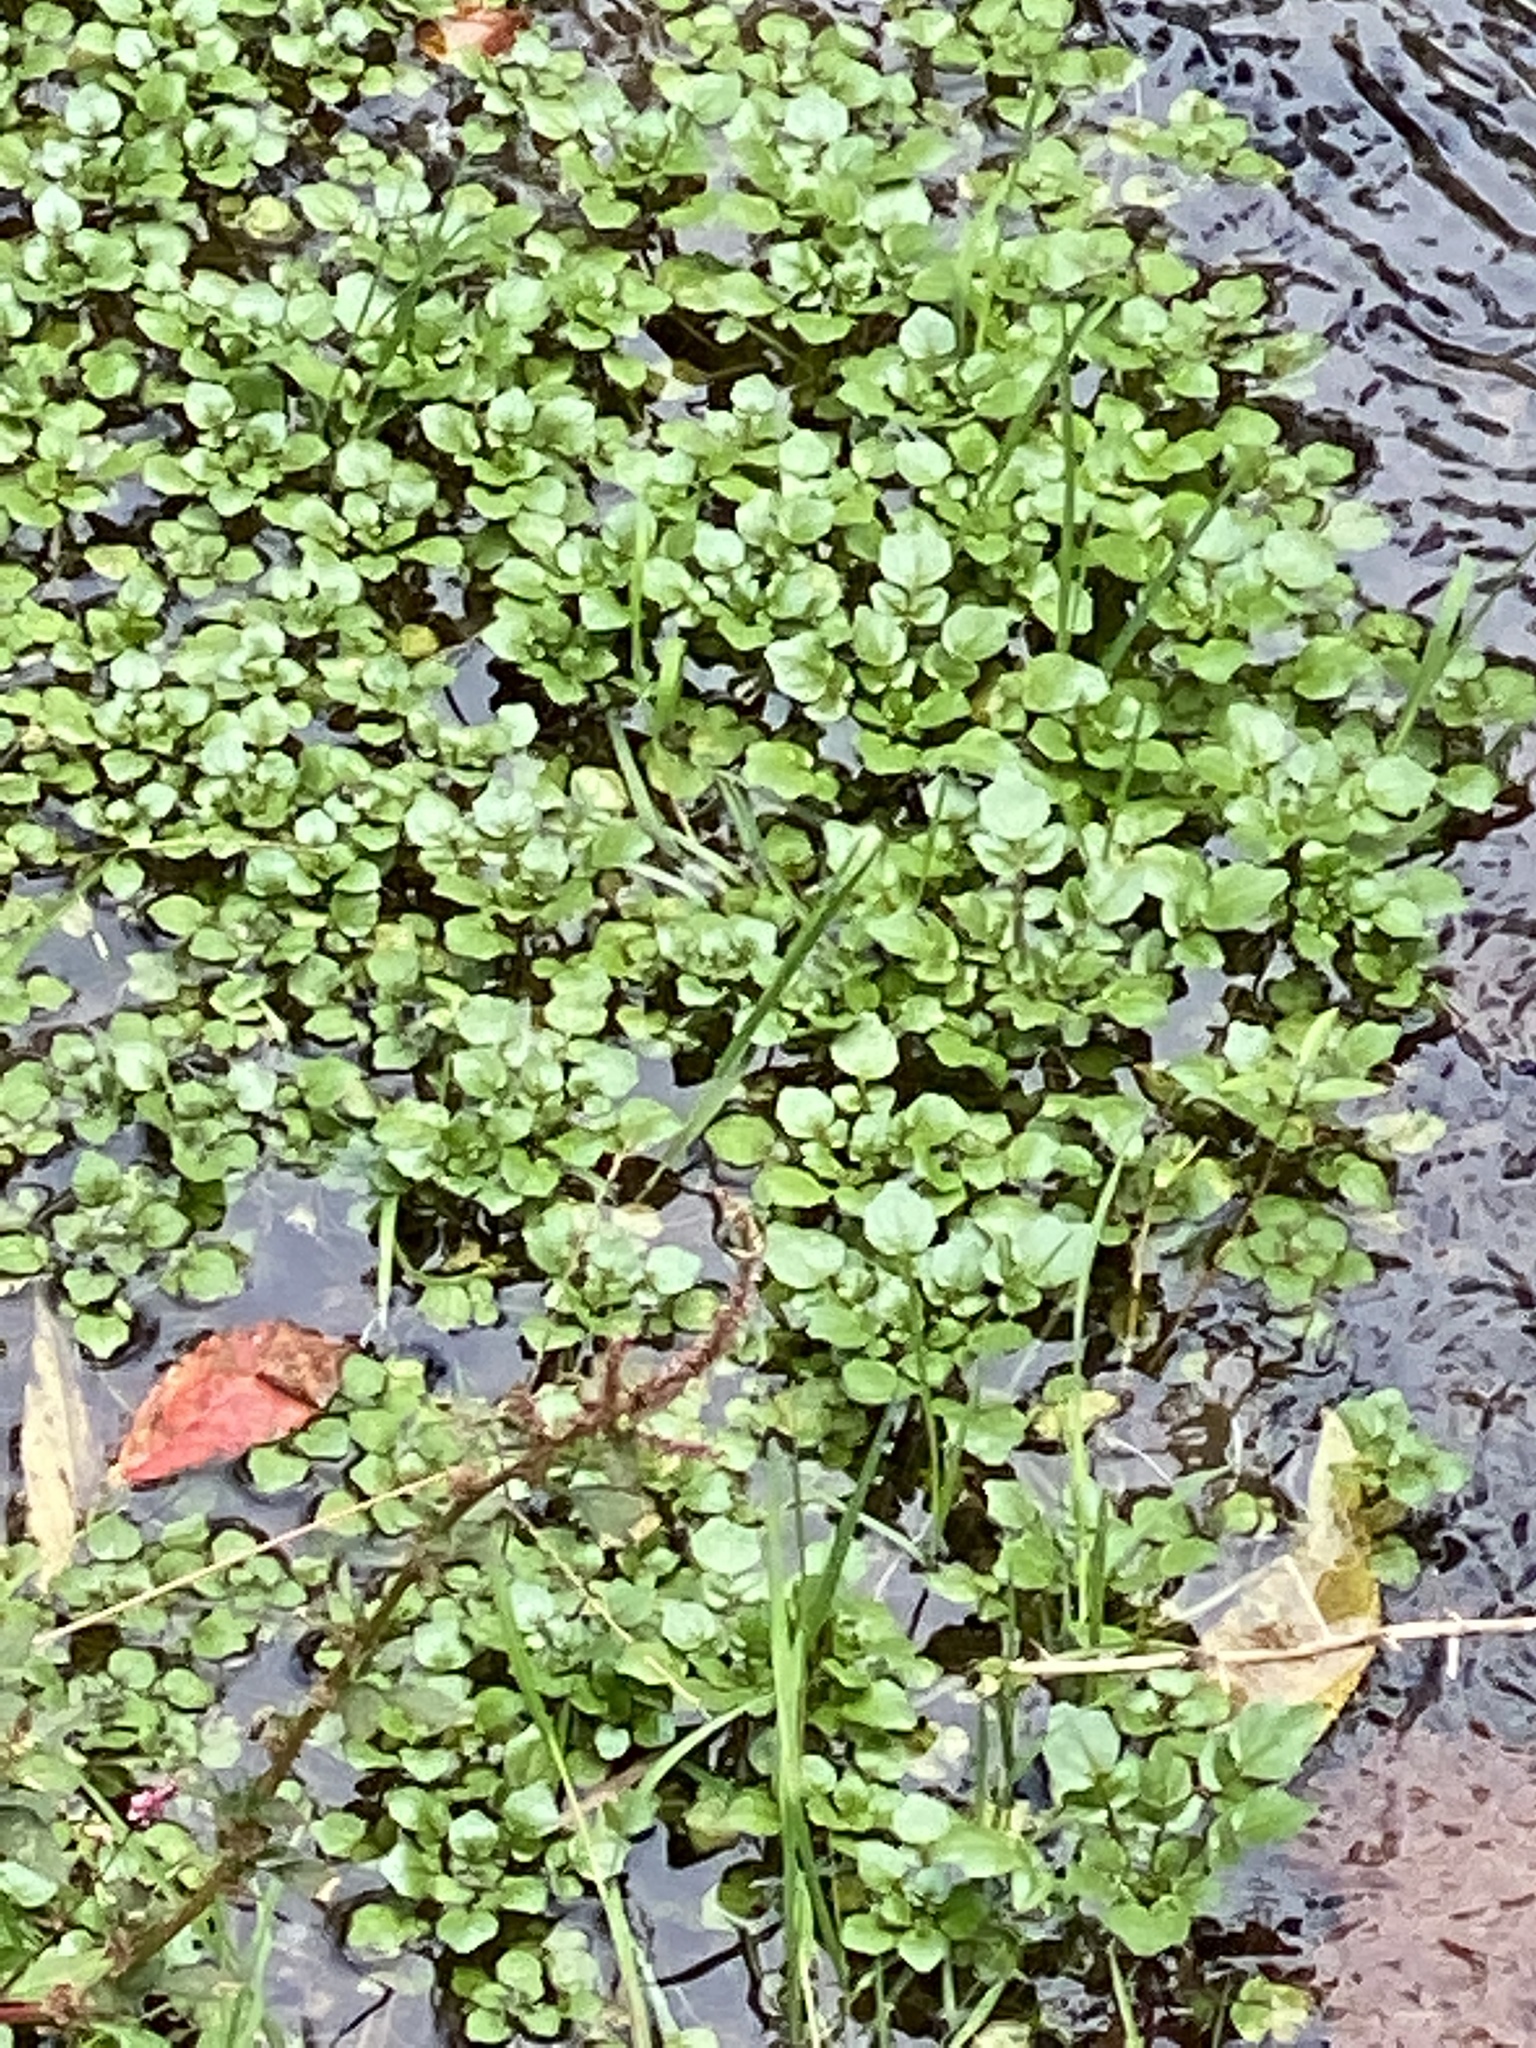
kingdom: Plantae
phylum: Tracheophyta
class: Magnoliopsida
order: Brassicales
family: Brassicaceae
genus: Nasturtium
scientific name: Nasturtium officinale
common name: Watercress
